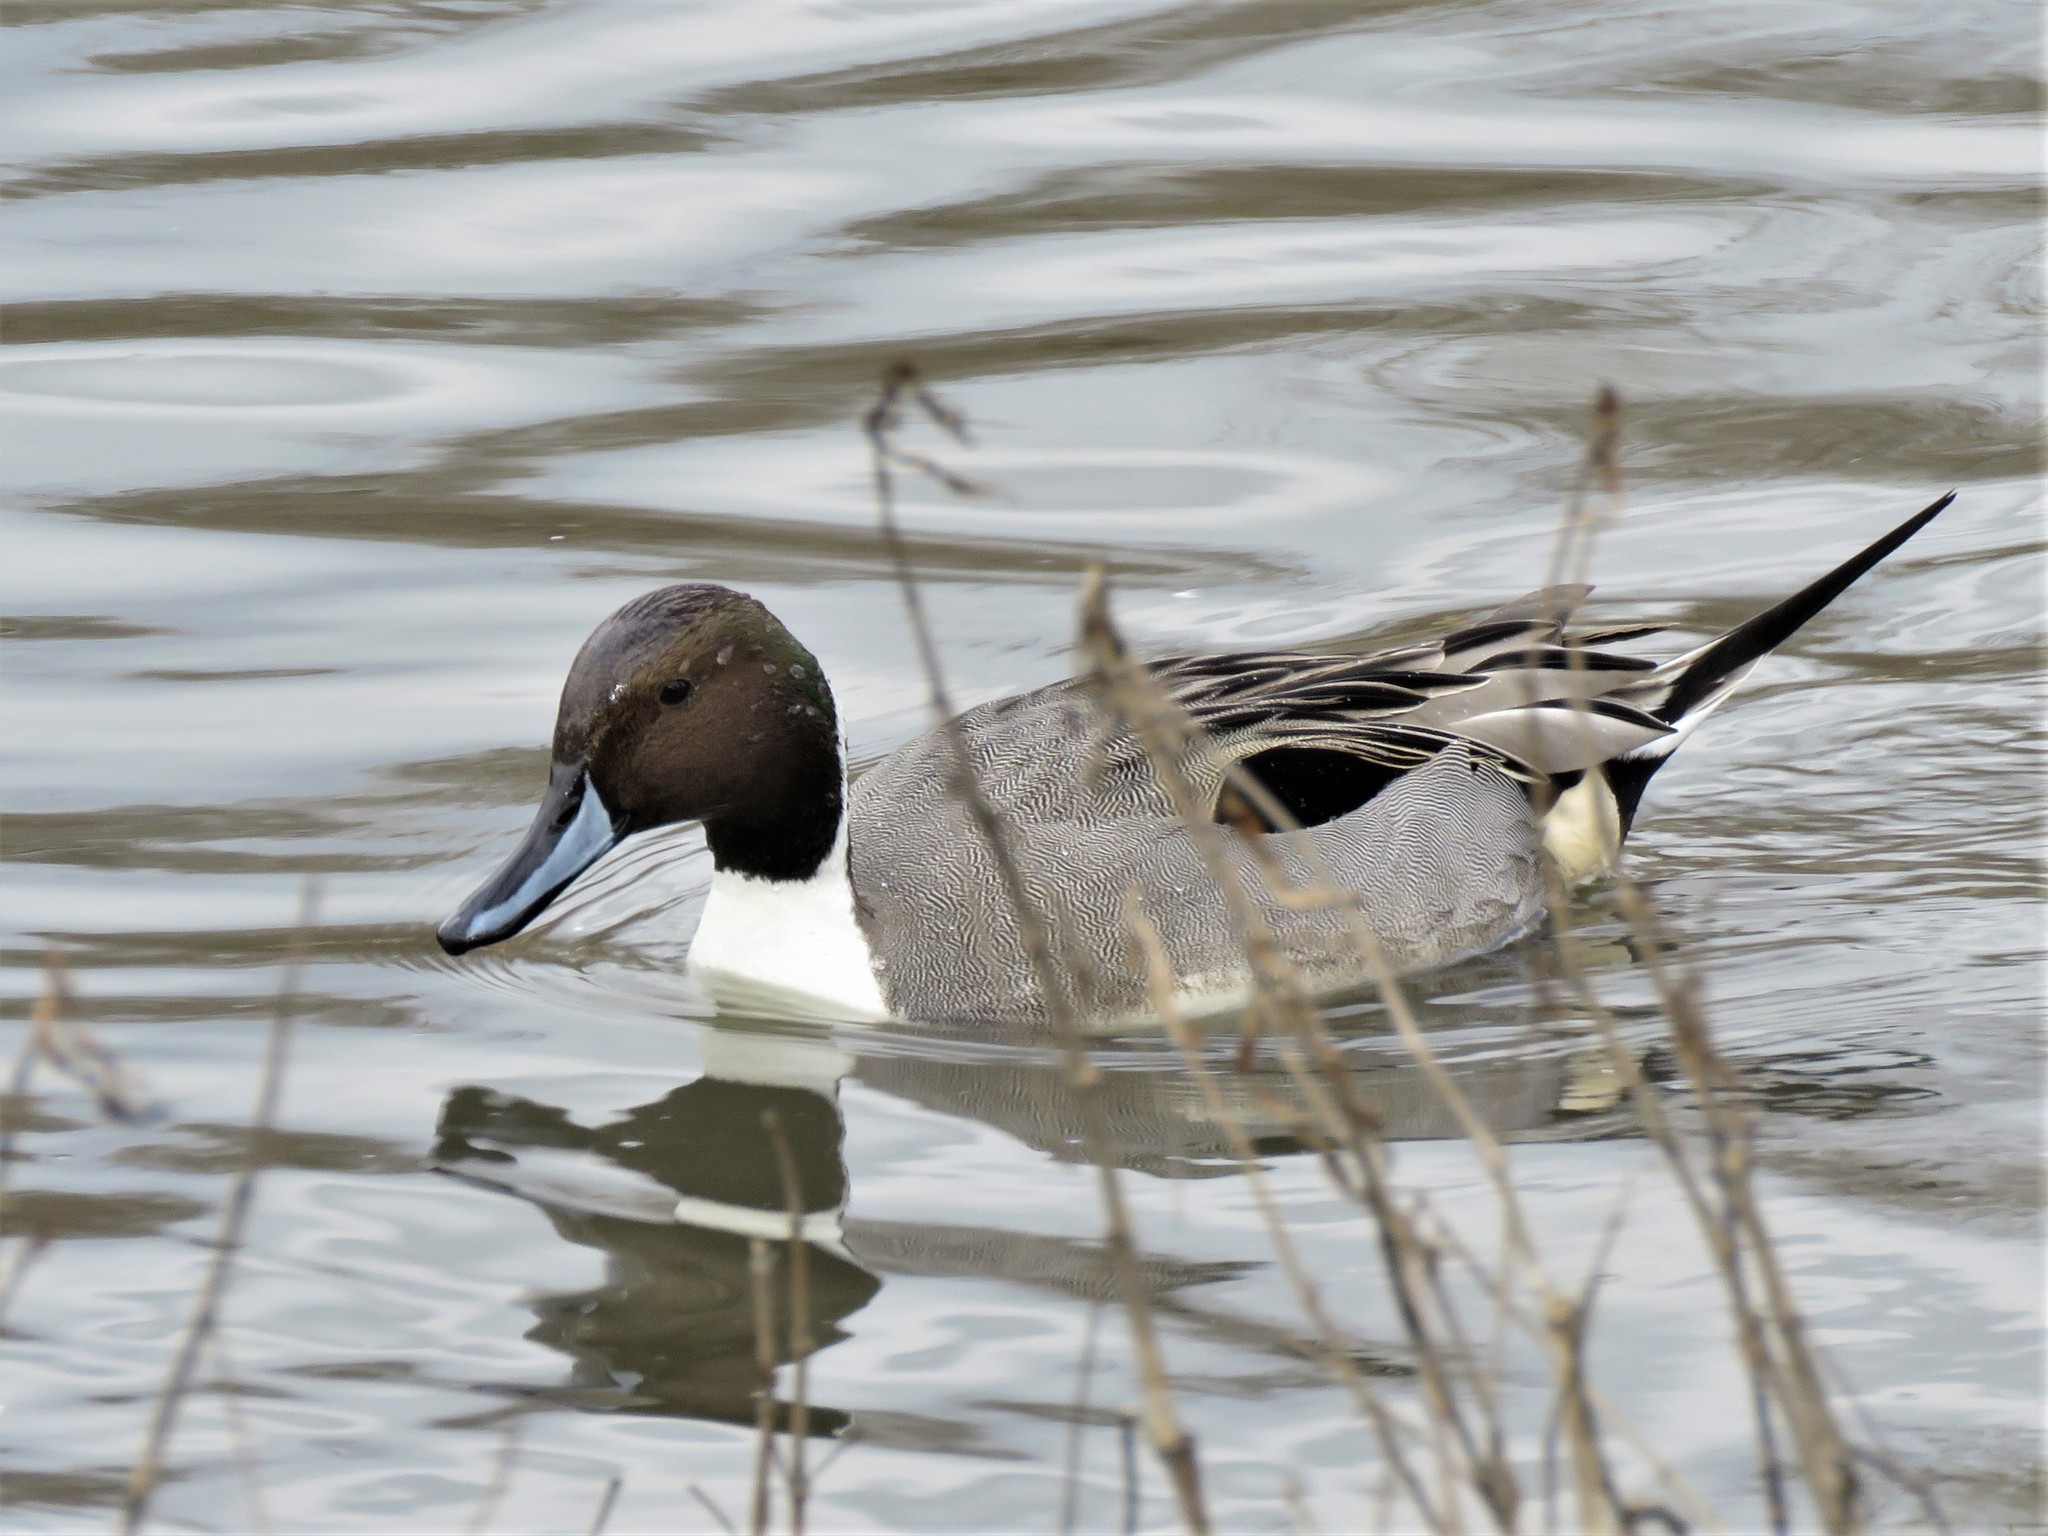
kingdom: Animalia
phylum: Chordata
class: Aves
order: Anseriformes
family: Anatidae
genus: Anas
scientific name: Anas acuta
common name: Northern pintail
